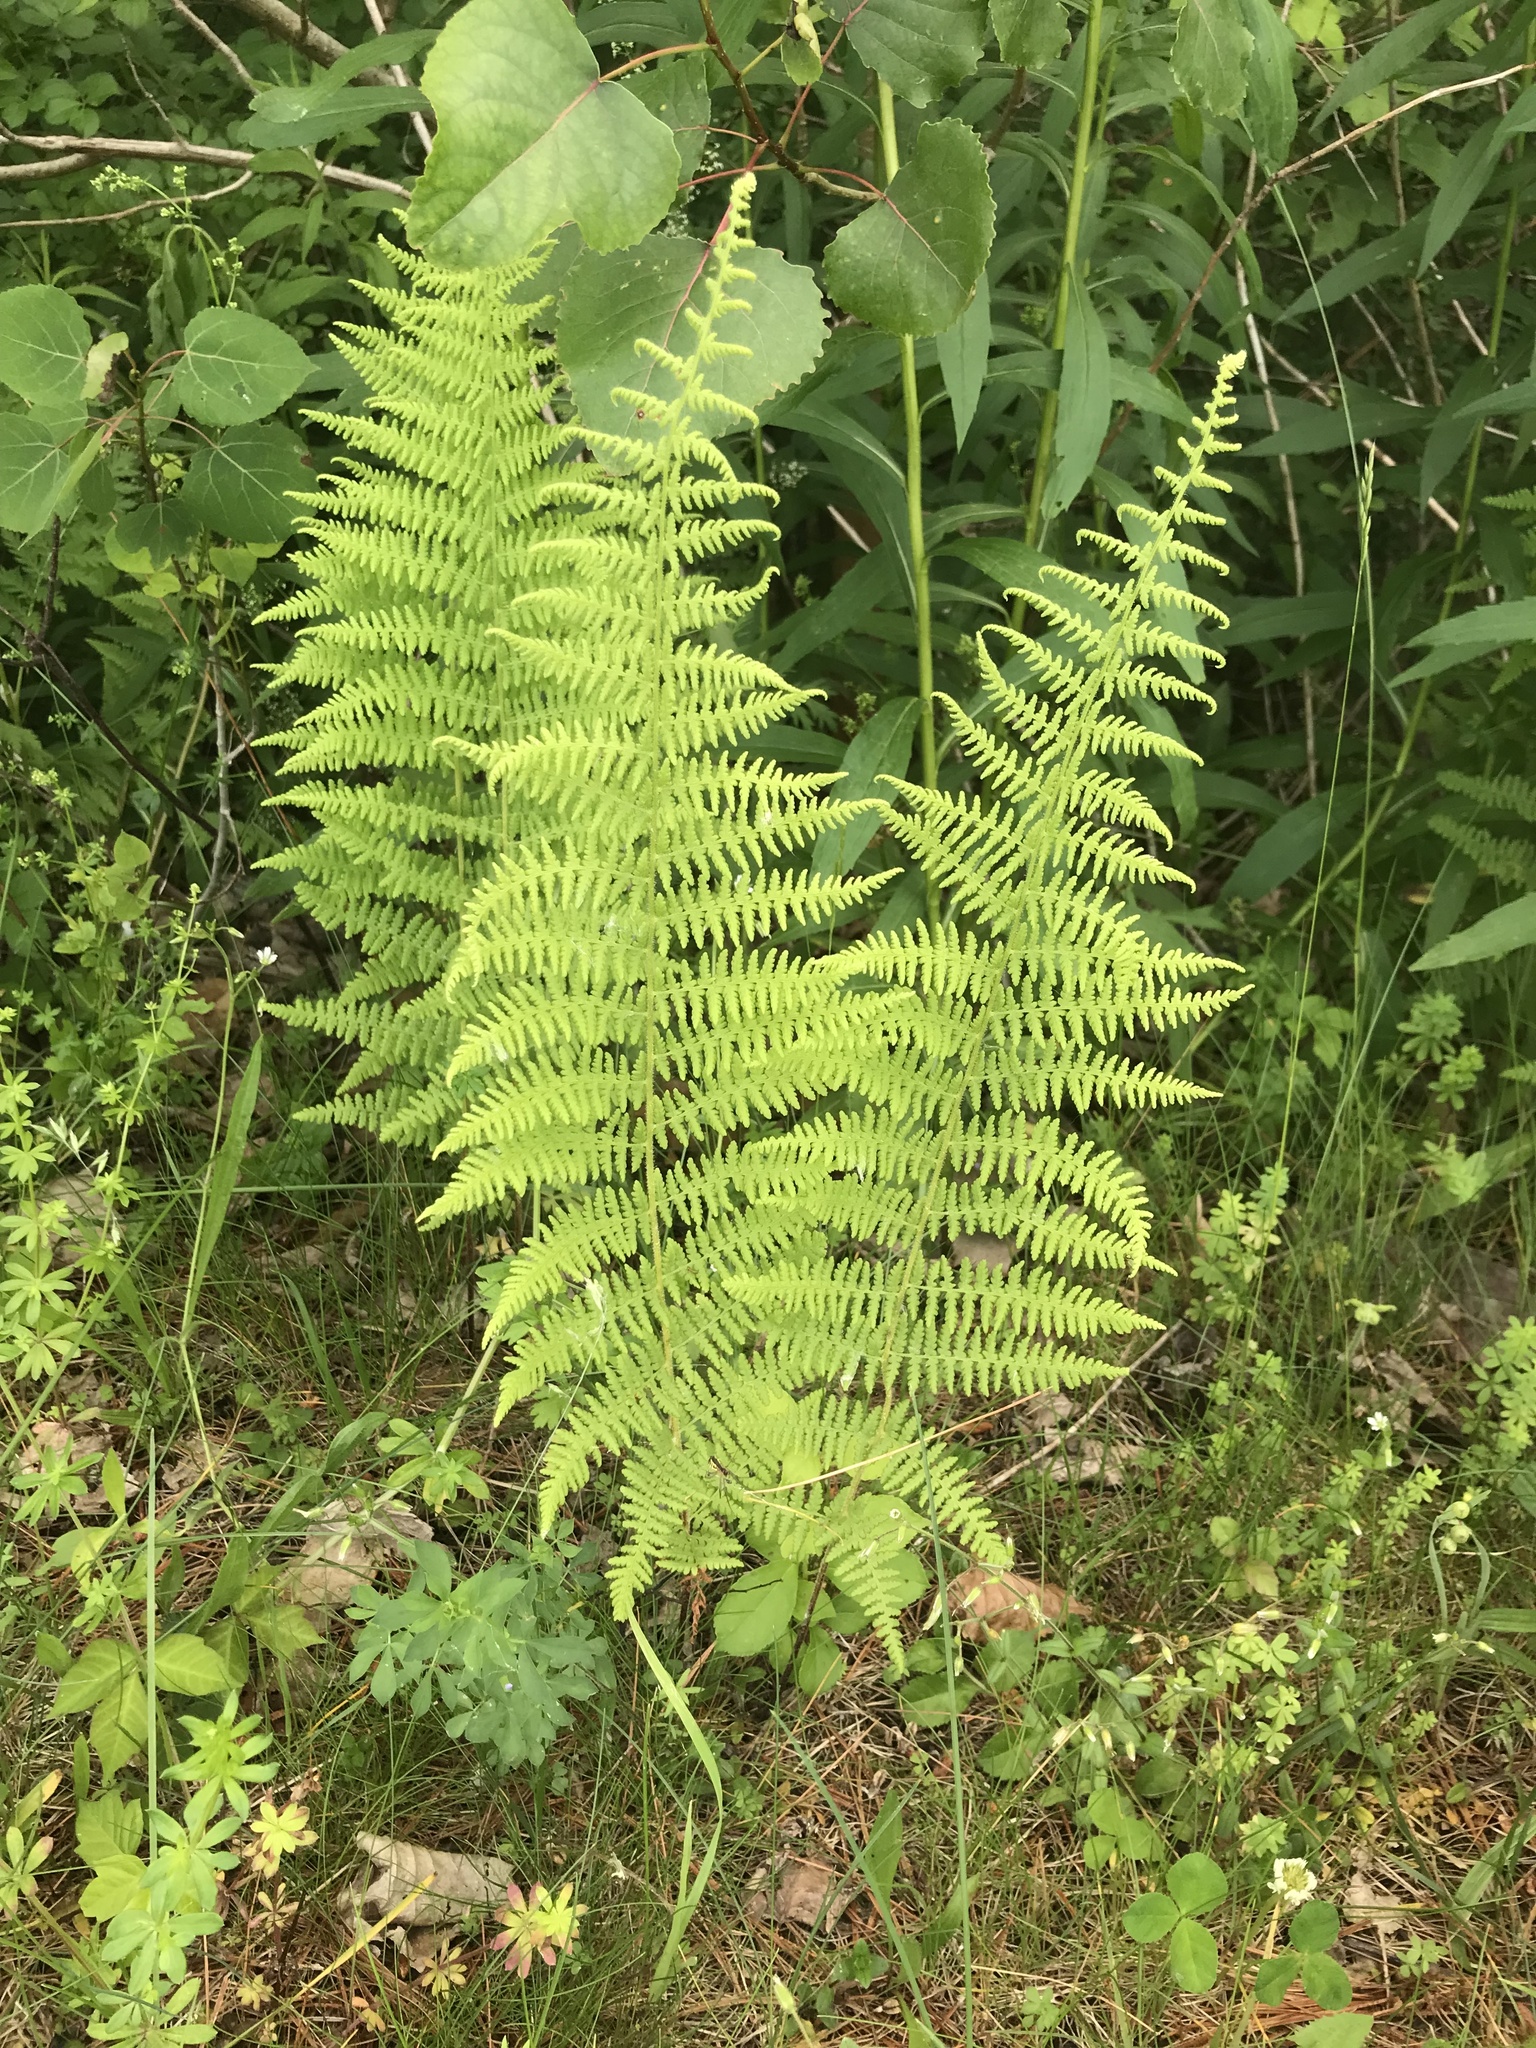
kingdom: Plantae
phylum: Tracheophyta
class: Polypodiopsida
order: Polypodiales
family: Dennstaedtiaceae
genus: Sitobolium
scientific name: Sitobolium punctilobum
